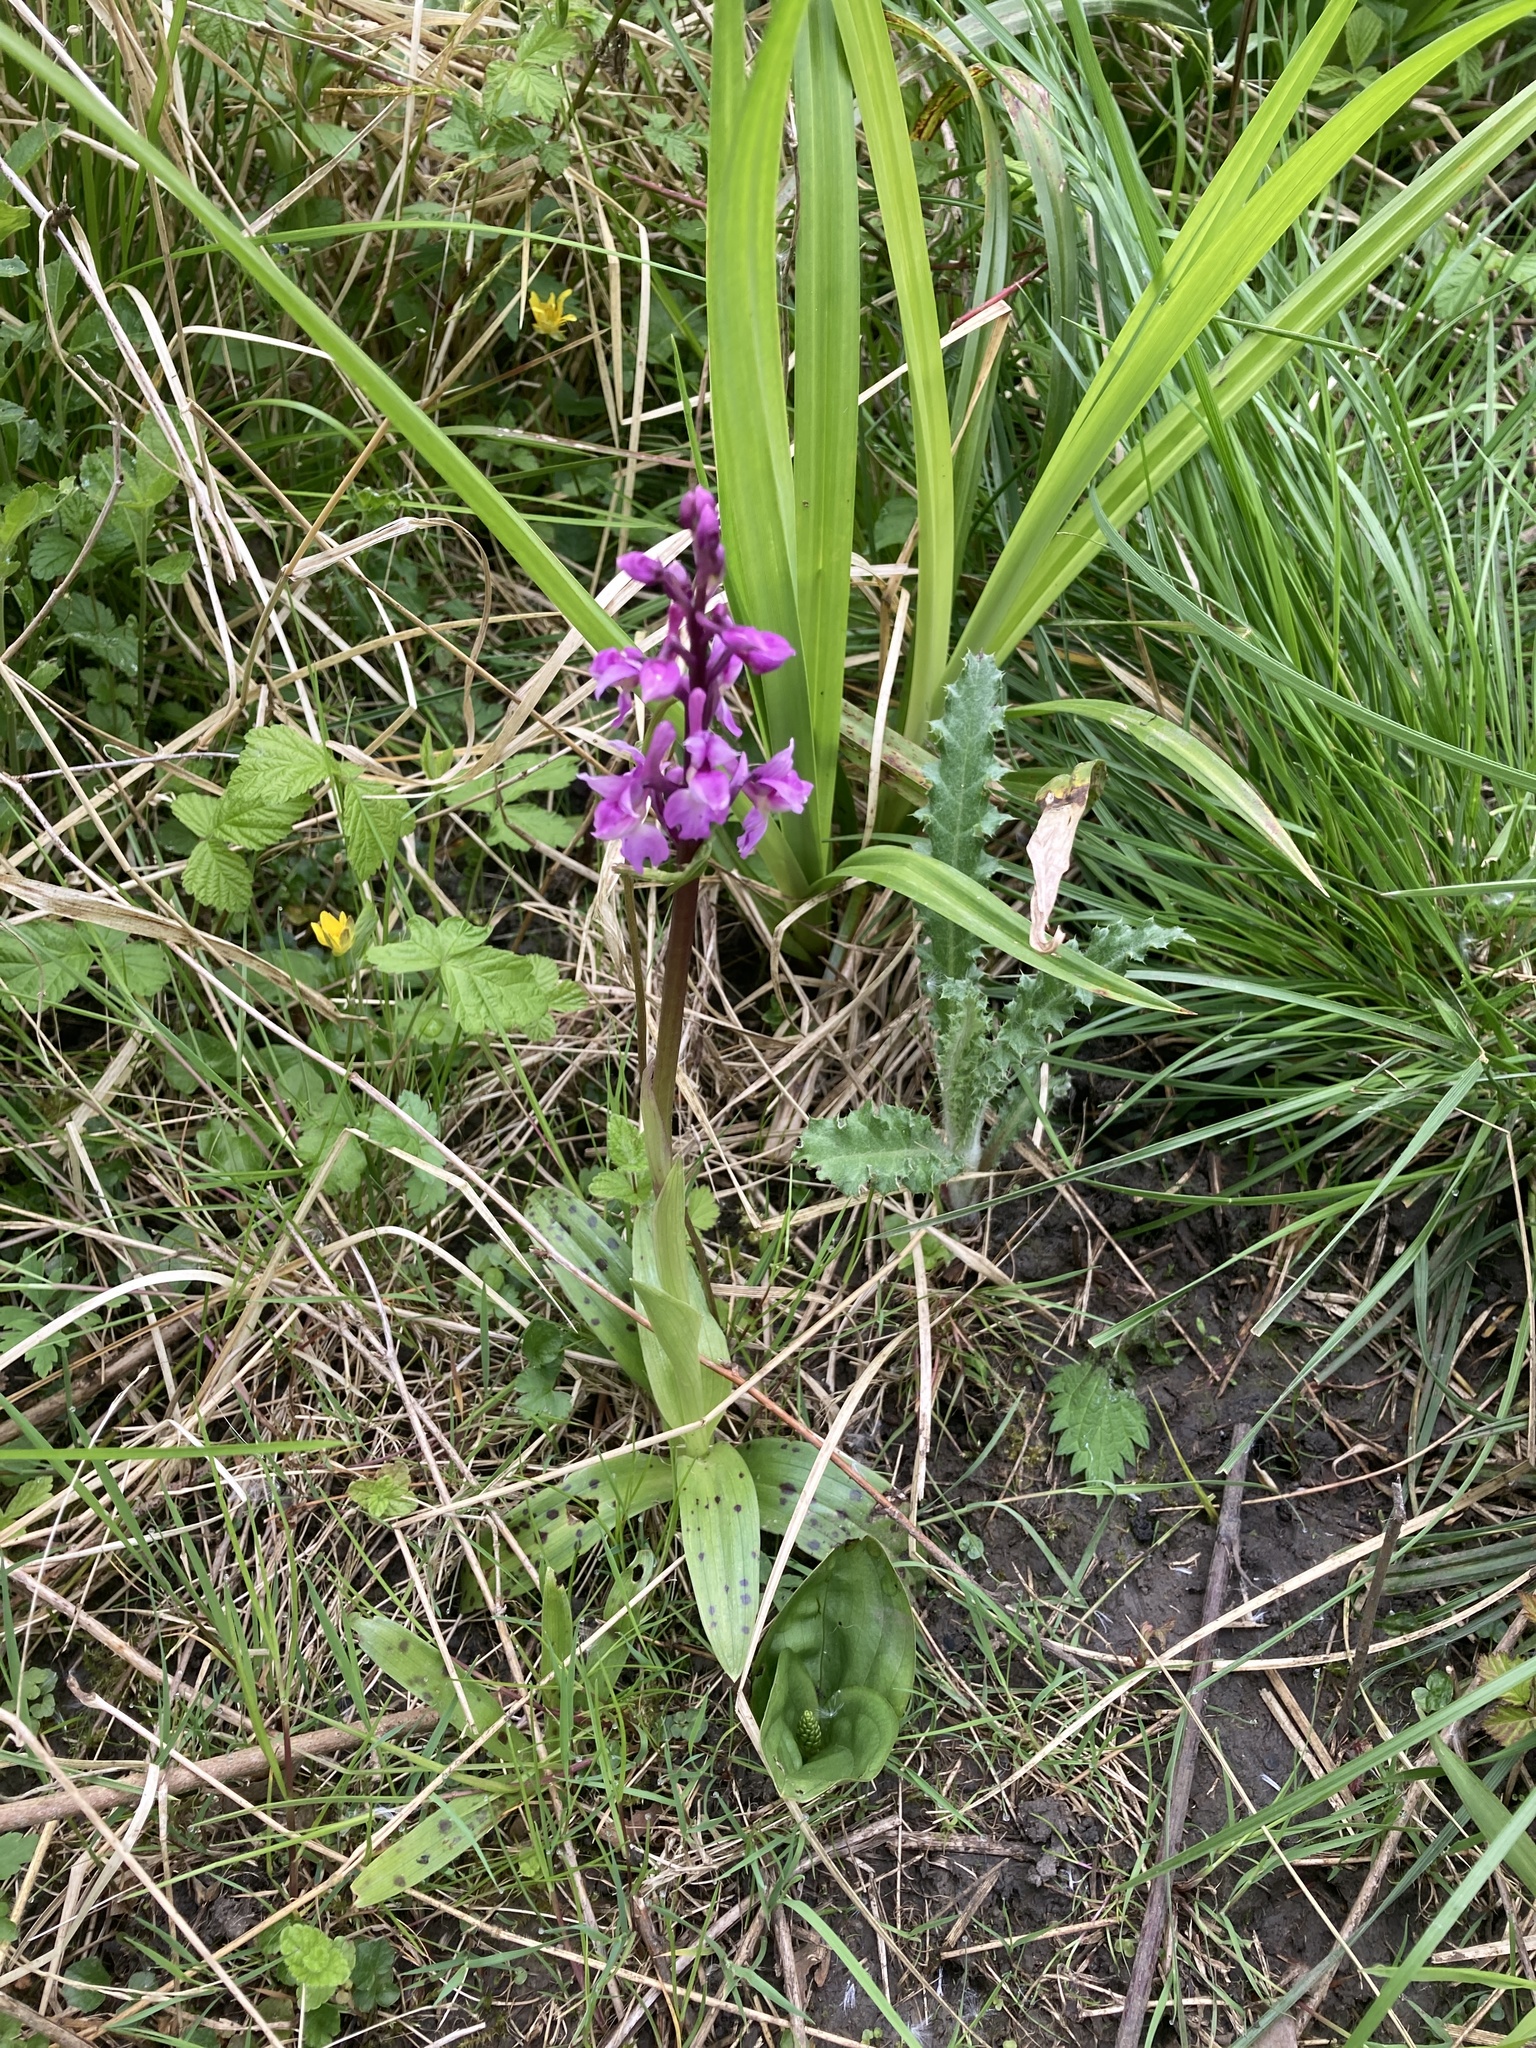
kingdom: Plantae
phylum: Tracheophyta
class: Liliopsida
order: Asparagales
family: Orchidaceae
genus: Orchis
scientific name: Orchis mascula
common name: Early-purple orchid
